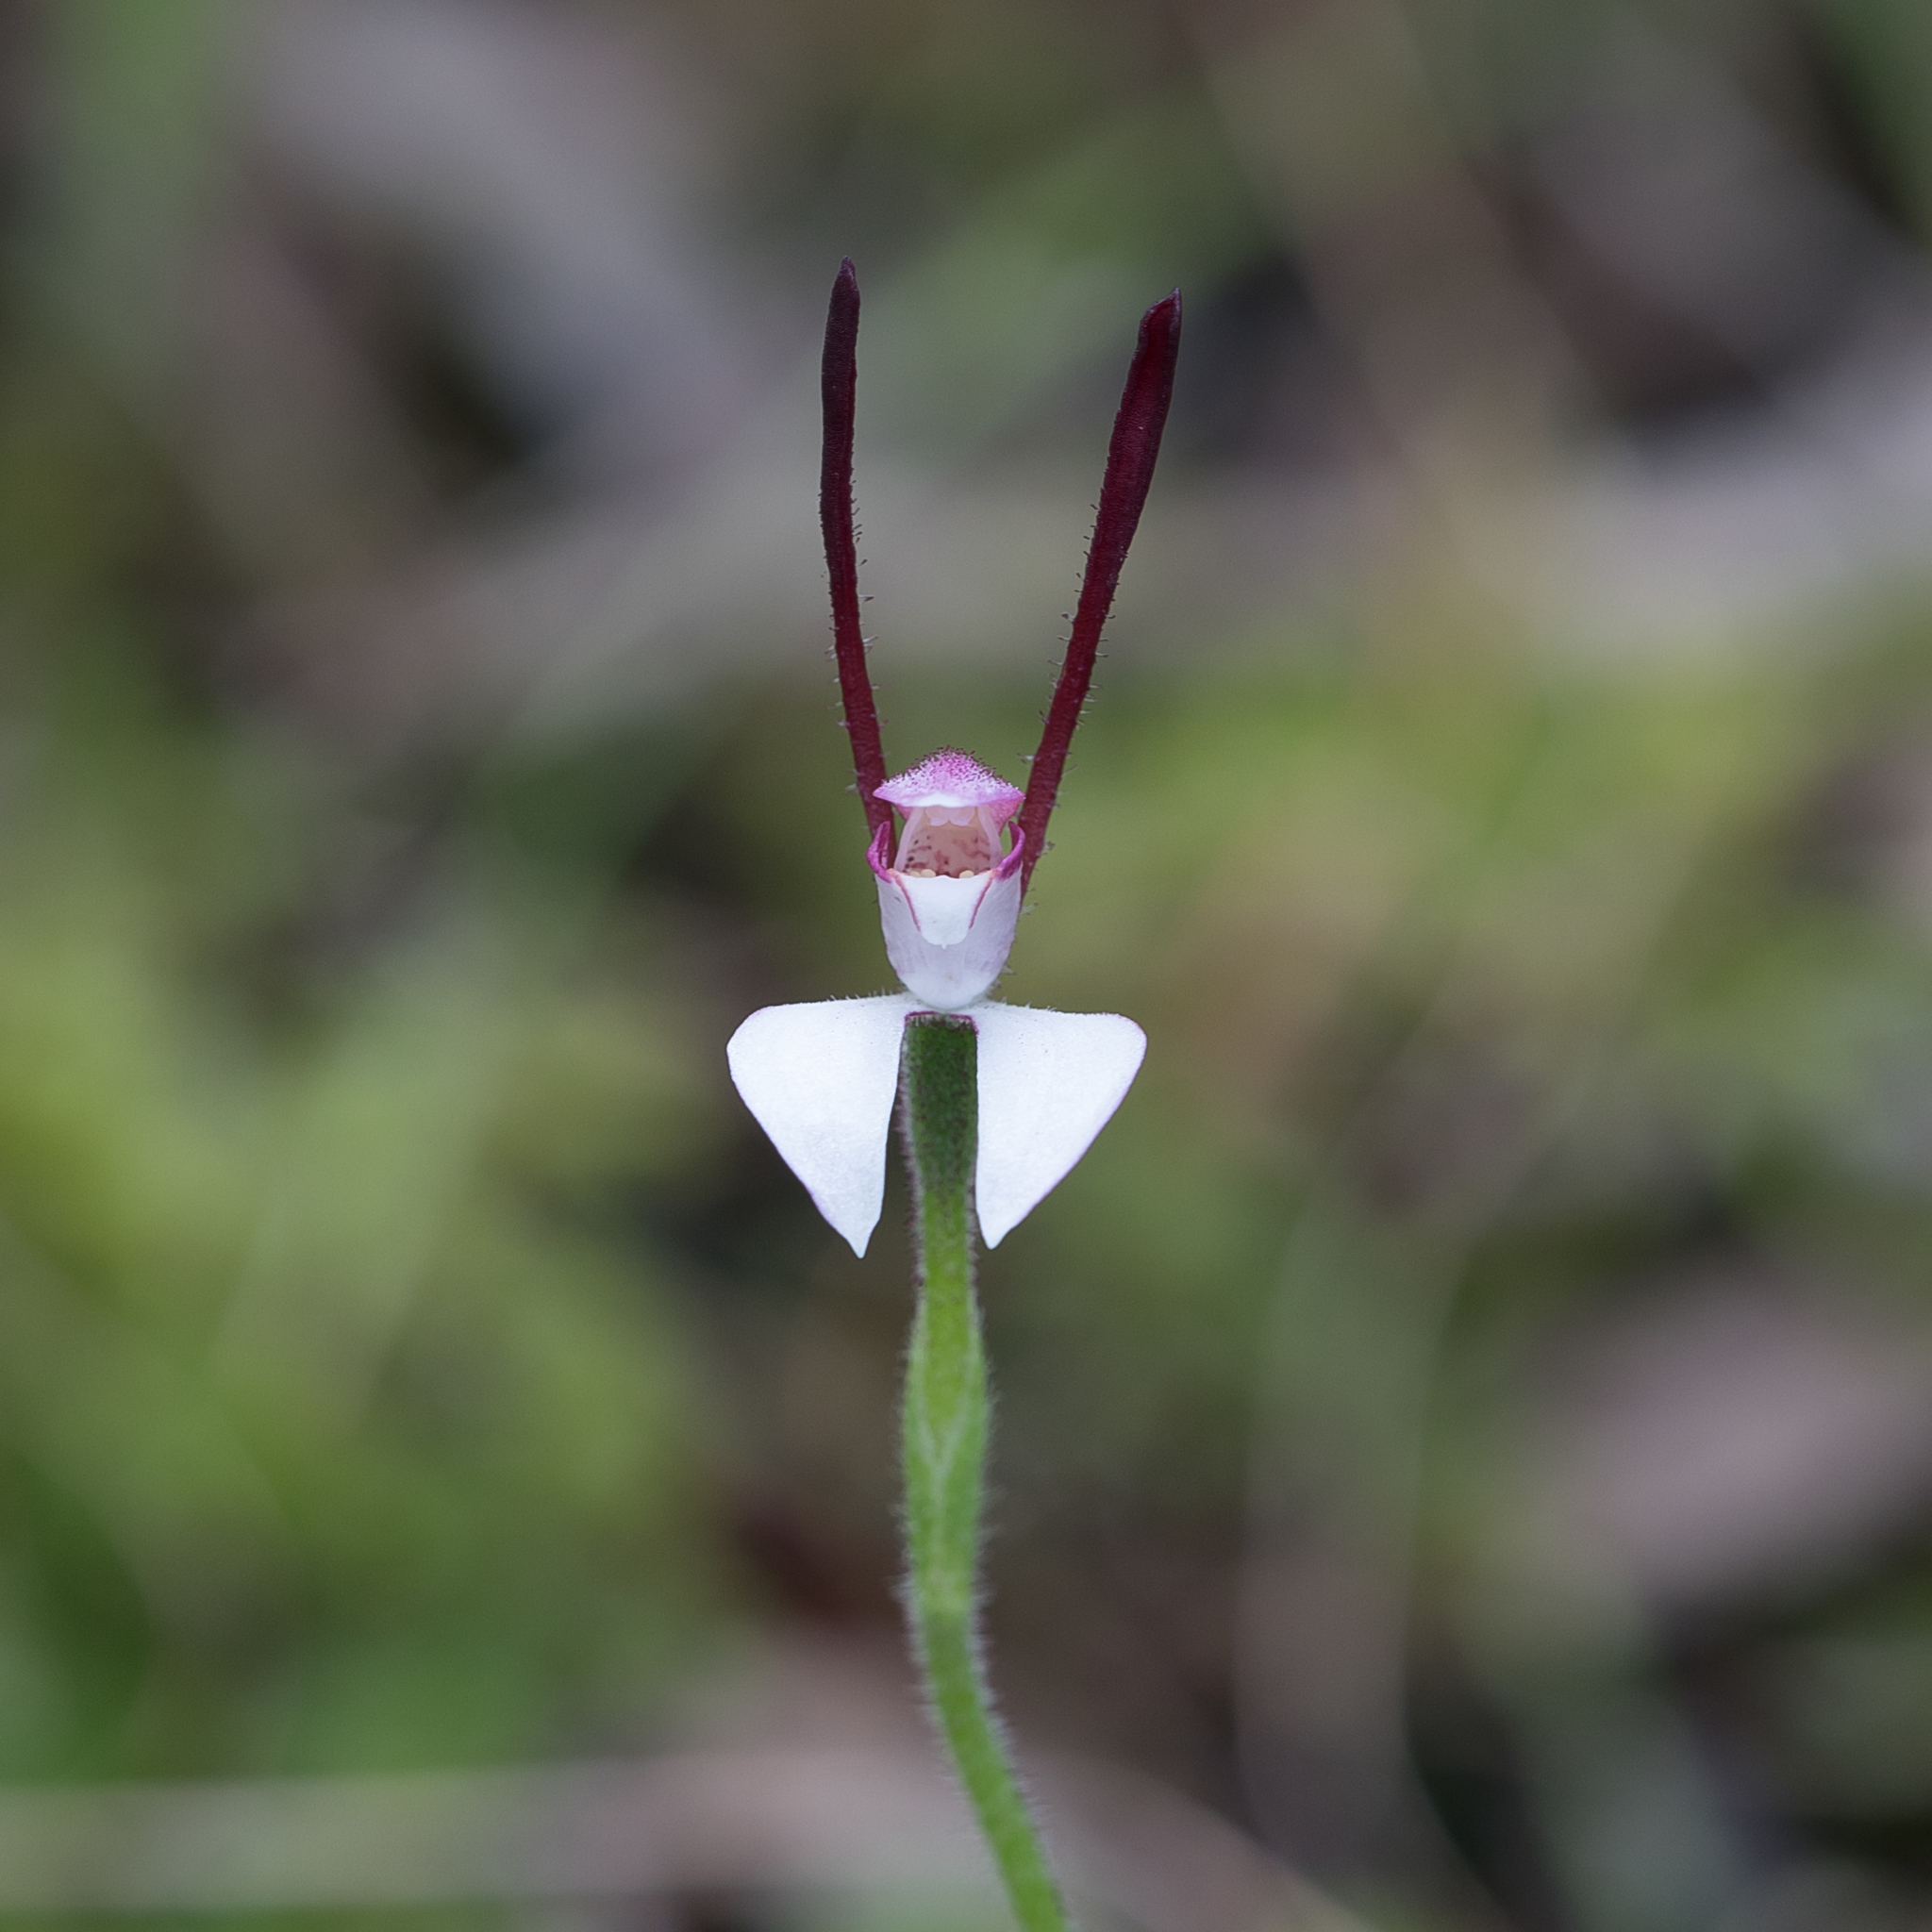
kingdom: Plantae
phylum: Tracheophyta
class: Liliopsida
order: Asparagales
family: Orchidaceae
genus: Leptoceras
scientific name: Leptoceras menziesii
